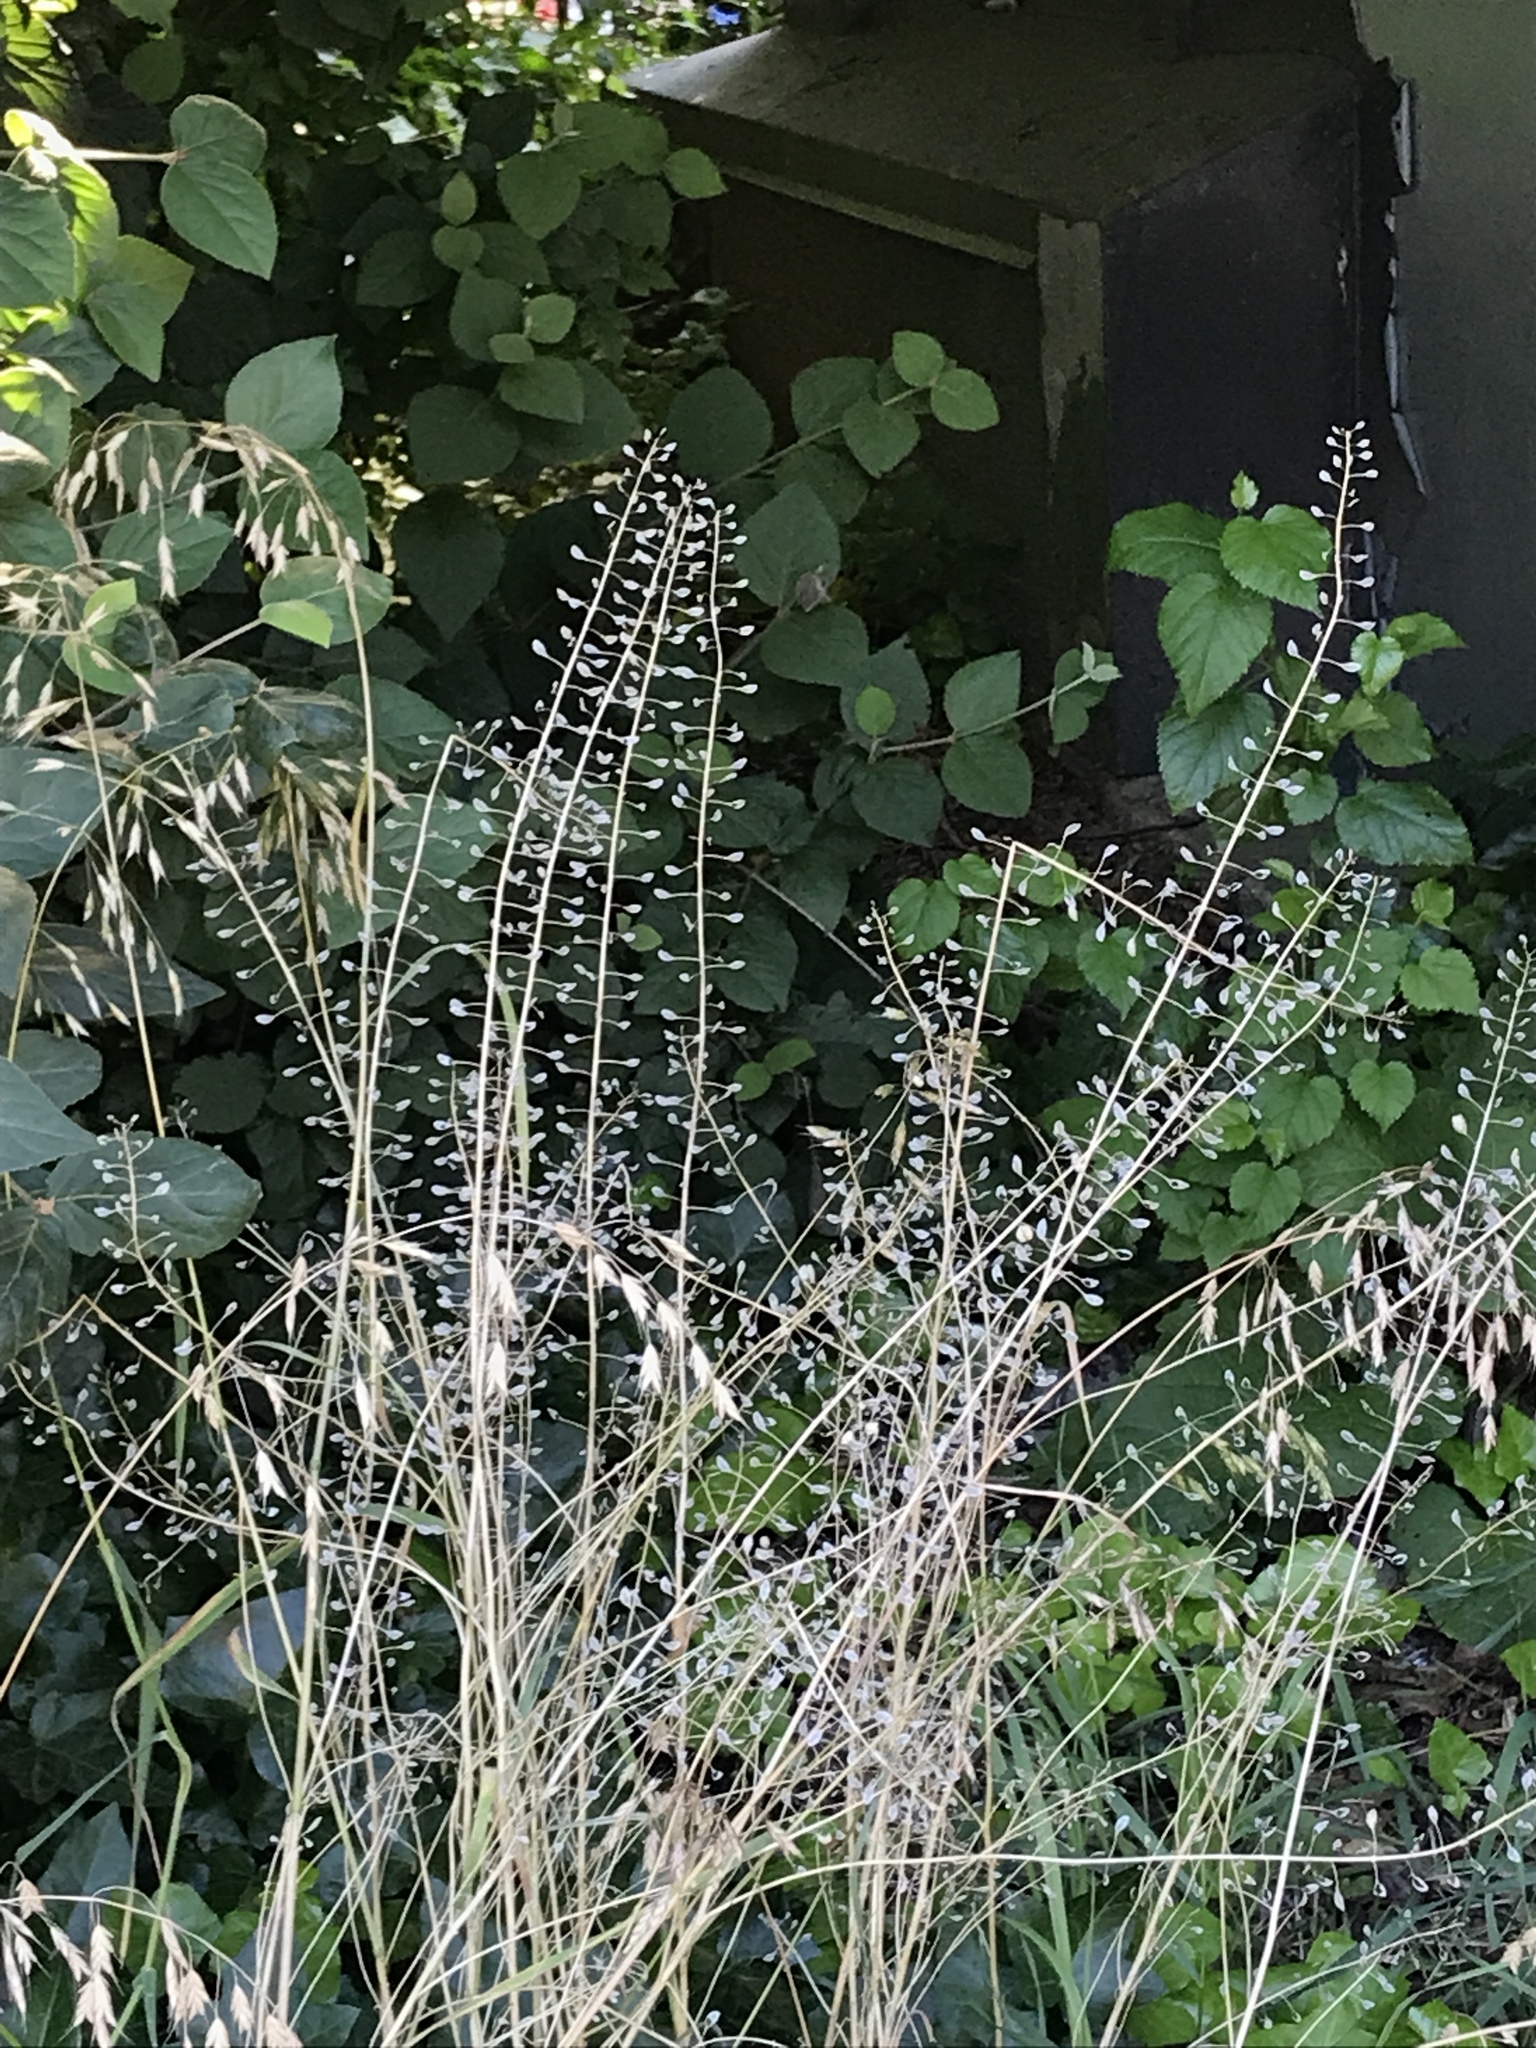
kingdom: Plantae
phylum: Tracheophyta
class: Magnoliopsida
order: Brassicales
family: Brassicaceae
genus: Mummenhoffia
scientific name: Mummenhoffia alliacea
